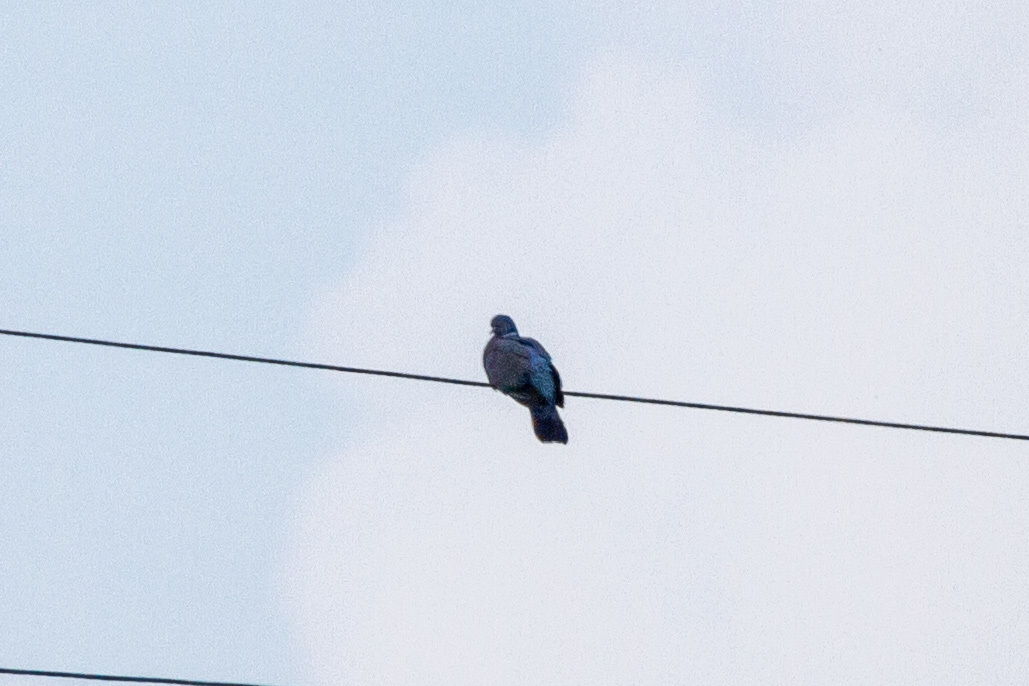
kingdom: Animalia
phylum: Chordata
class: Aves
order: Columbiformes
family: Columbidae
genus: Columba
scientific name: Columba palumbus
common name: Common wood pigeon
